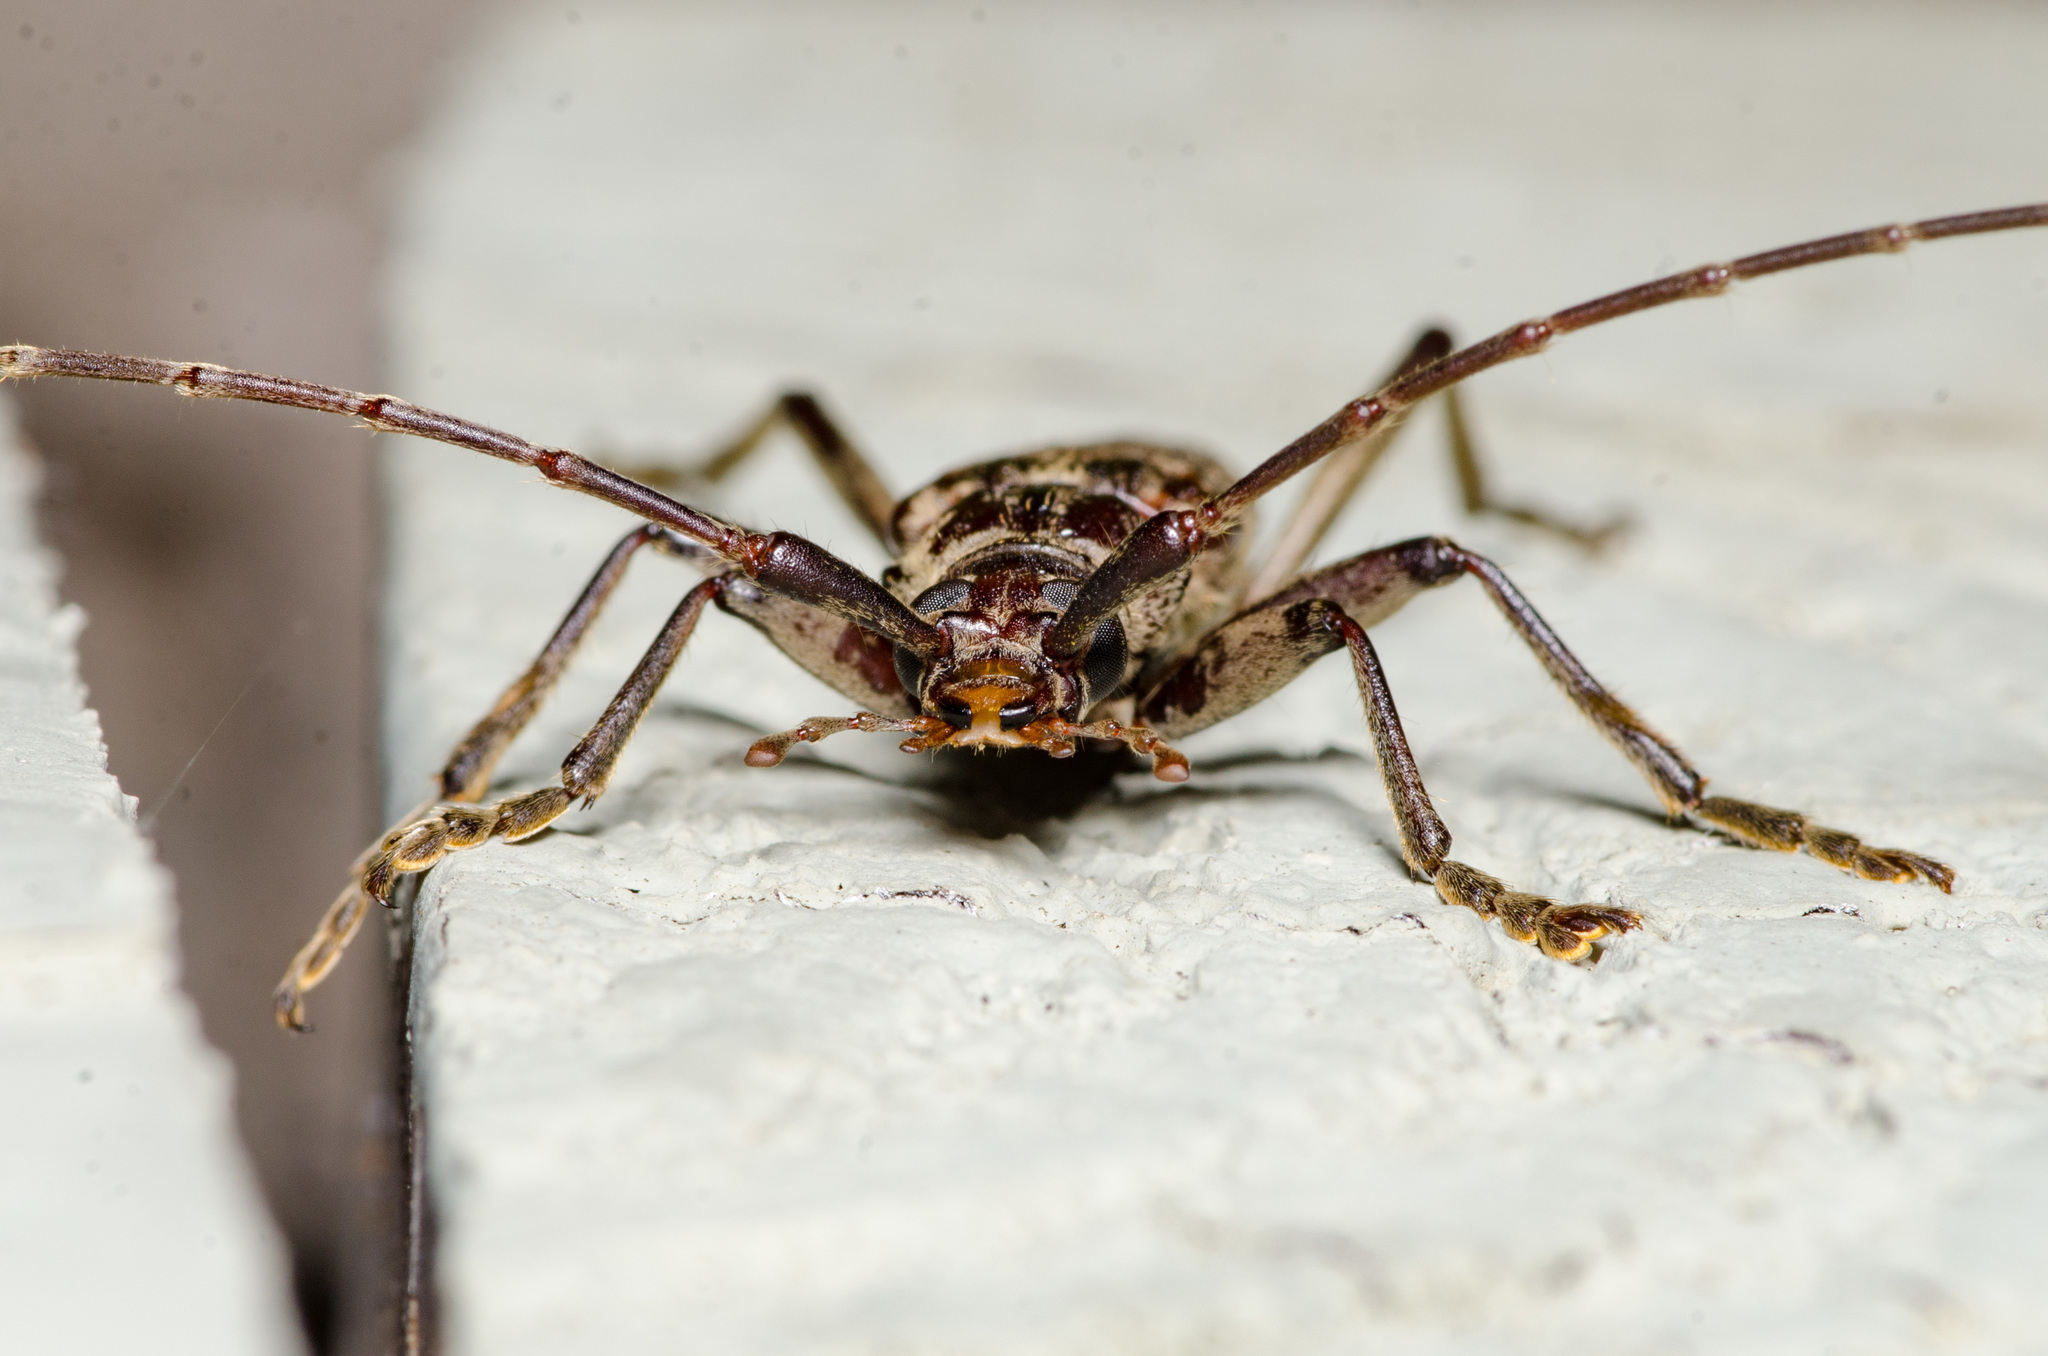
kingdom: Animalia
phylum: Arthropoda
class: Insecta
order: Coleoptera
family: Cerambycidae
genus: Elytrimitatrix
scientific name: Elytrimitatrix undata
